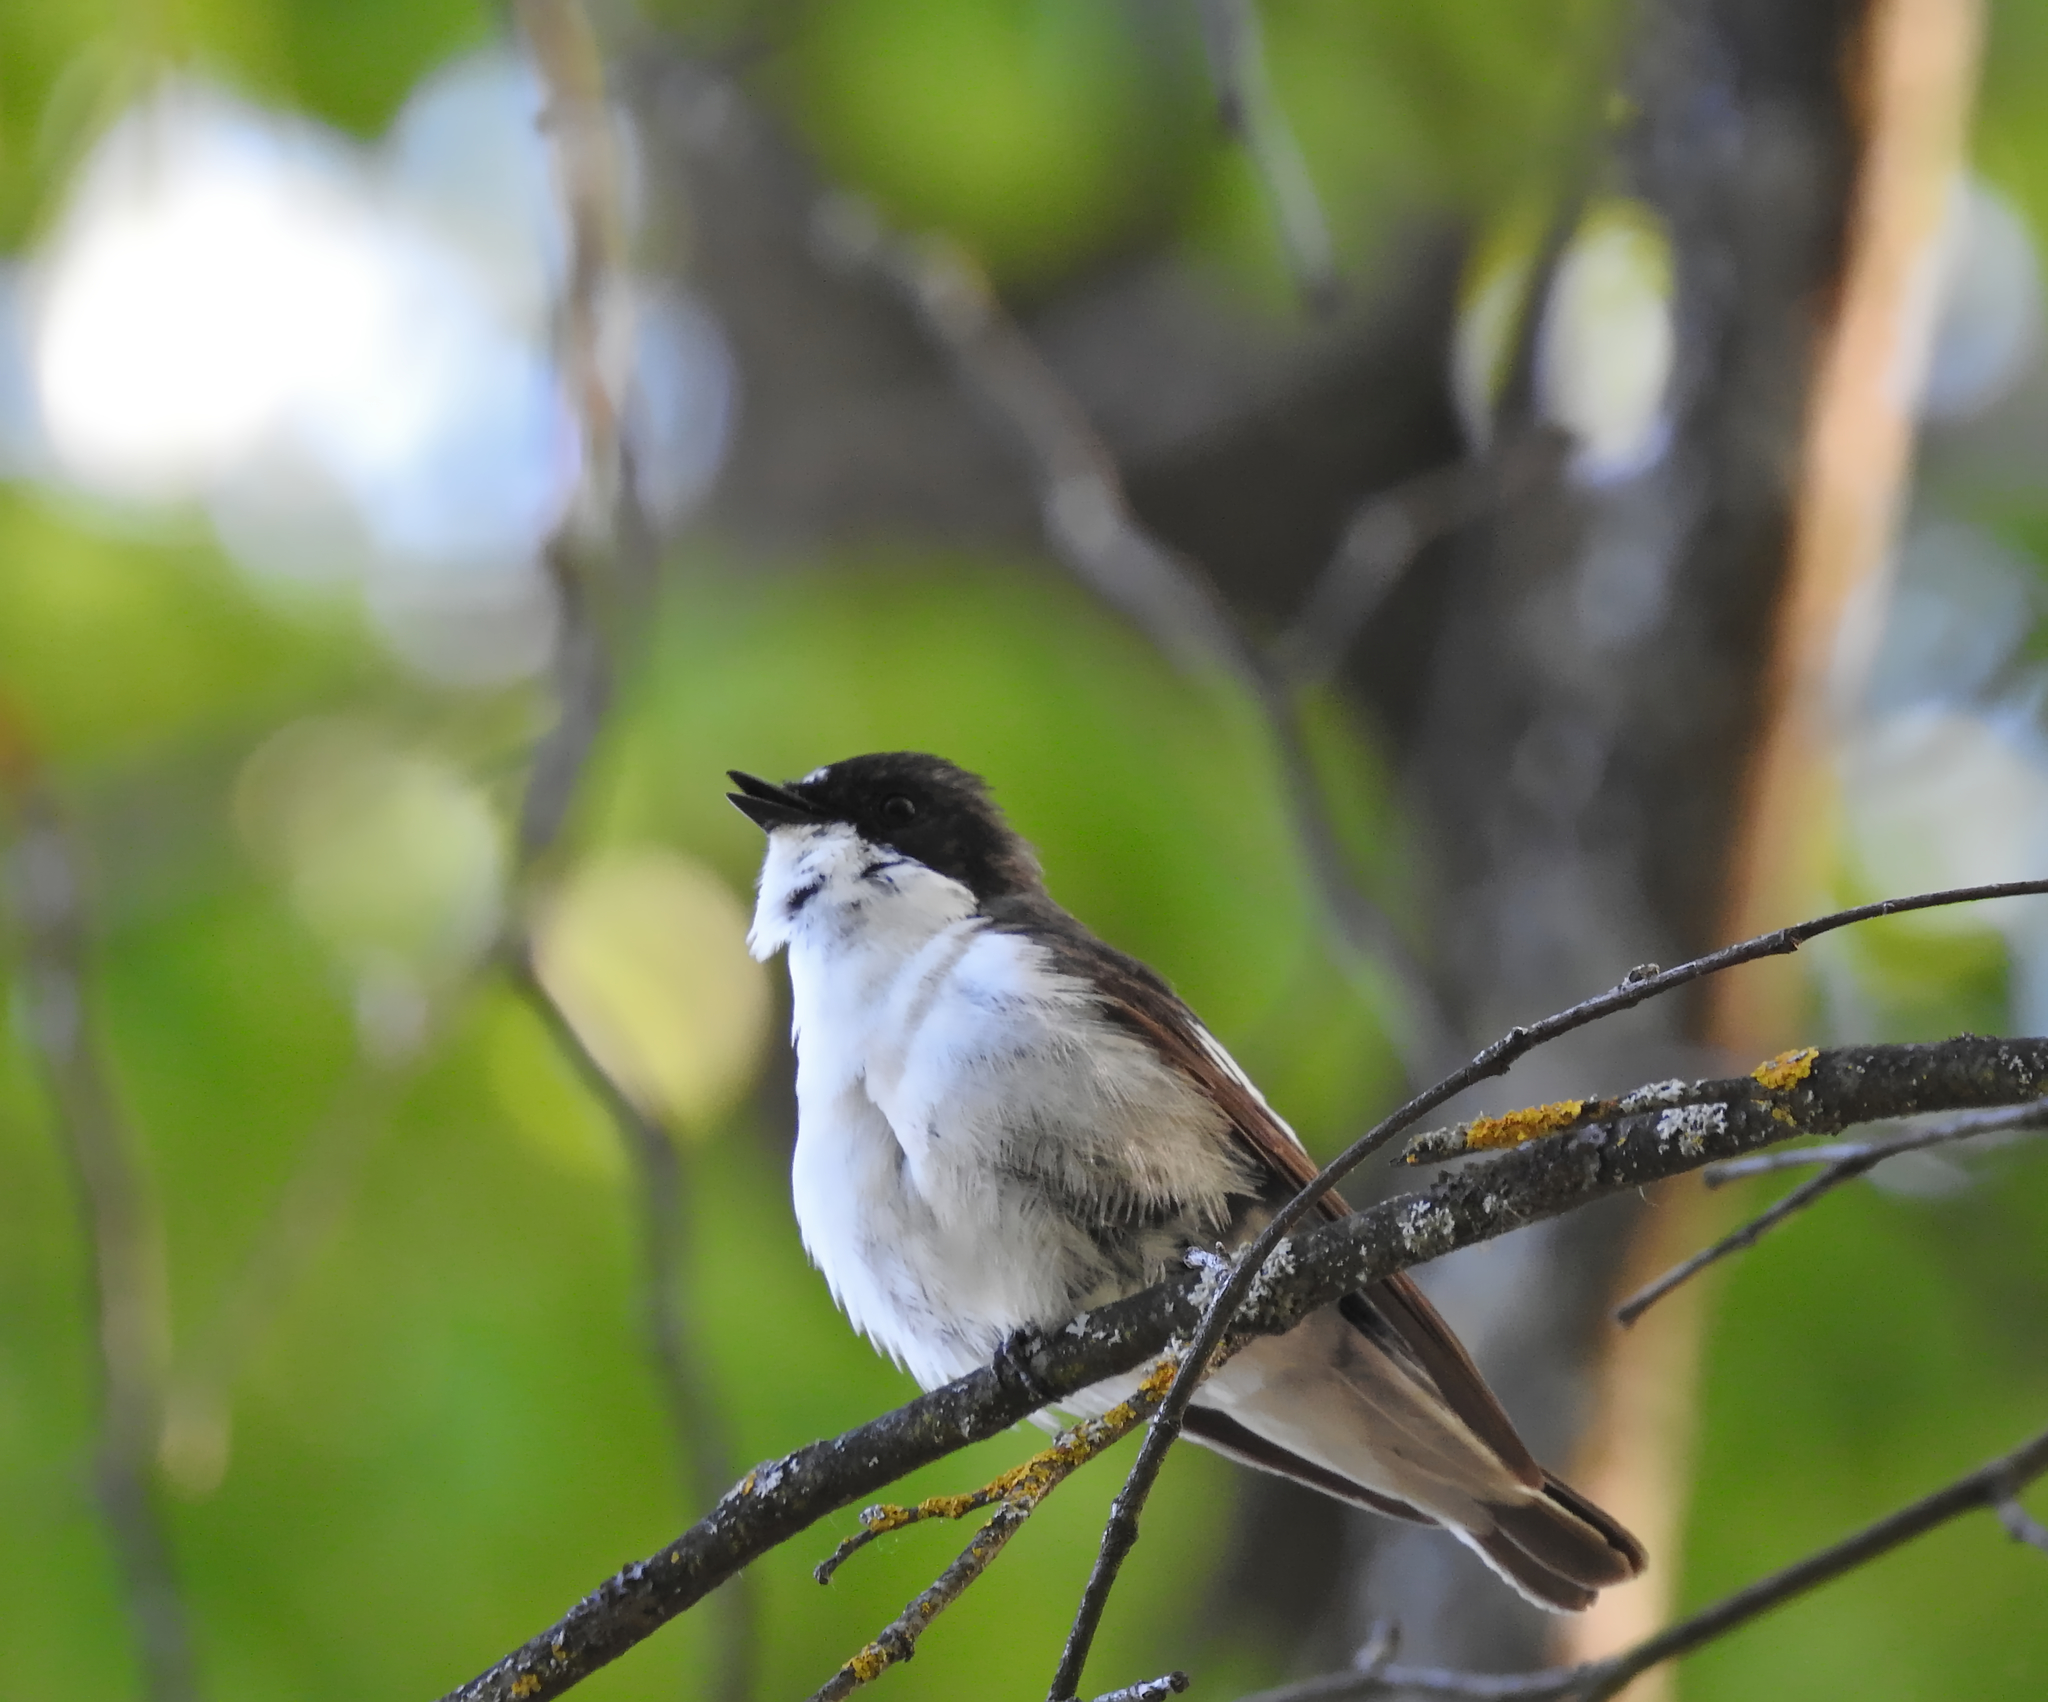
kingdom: Animalia
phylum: Chordata
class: Aves
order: Passeriformes
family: Muscicapidae
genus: Ficedula
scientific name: Ficedula hypoleuca
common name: European pied flycatcher
